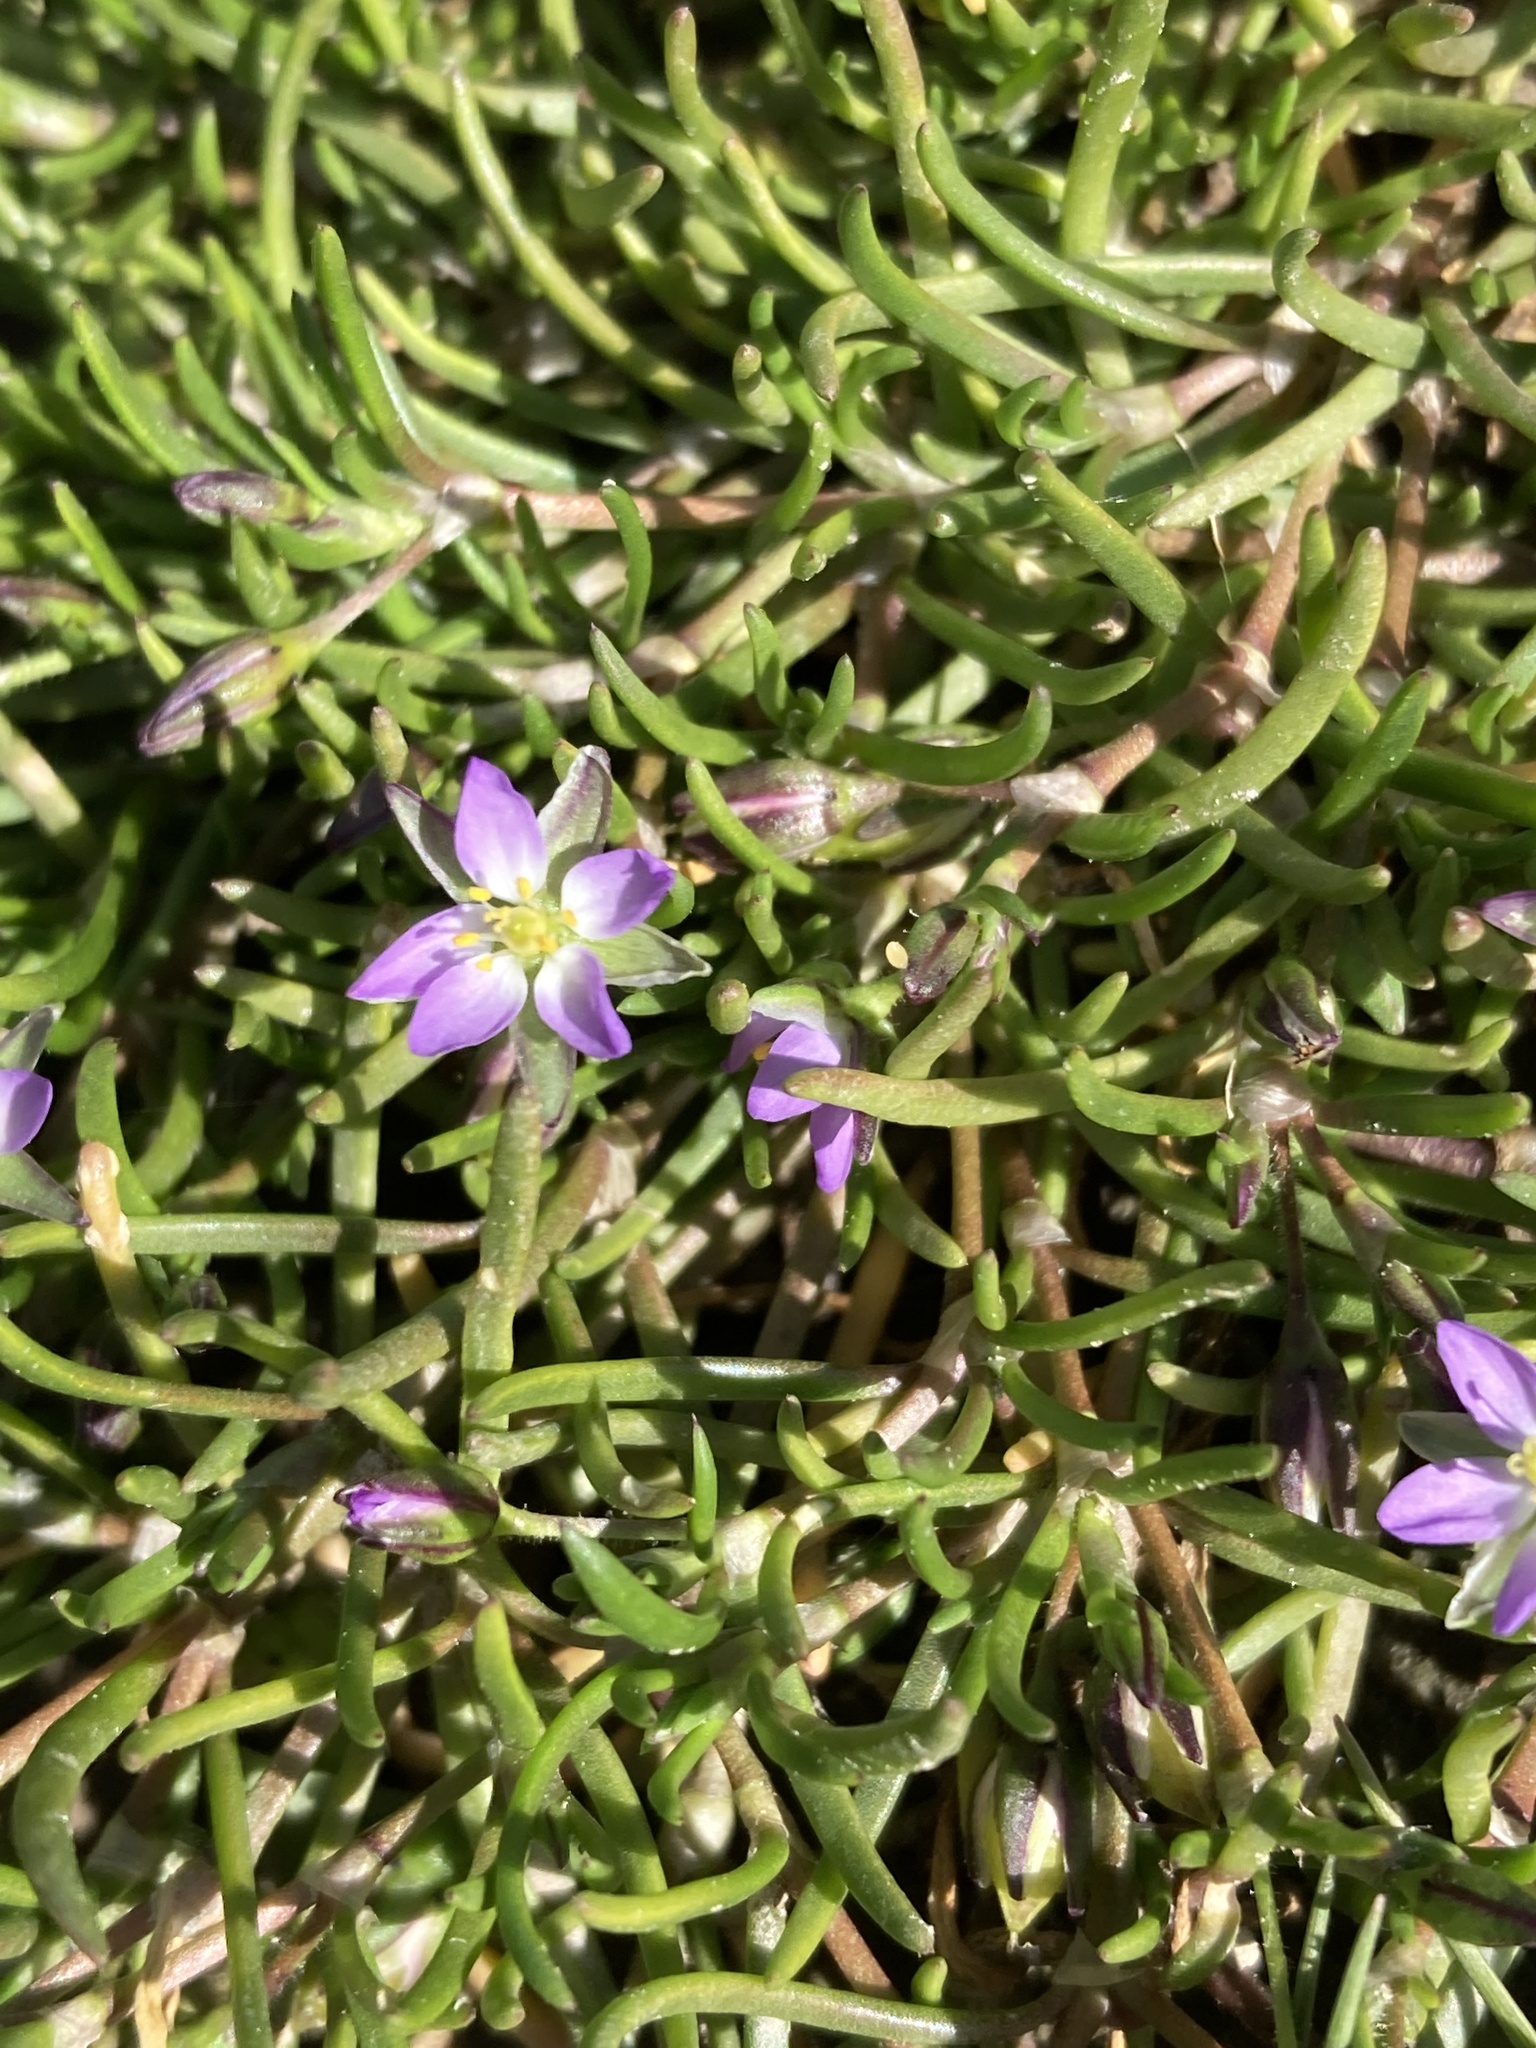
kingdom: Plantae
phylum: Tracheophyta
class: Magnoliopsida
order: Caryophyllales
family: Caryophyllaceae
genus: Spergularia
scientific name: Spergularia marina
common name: Lesser sea-spurrey
